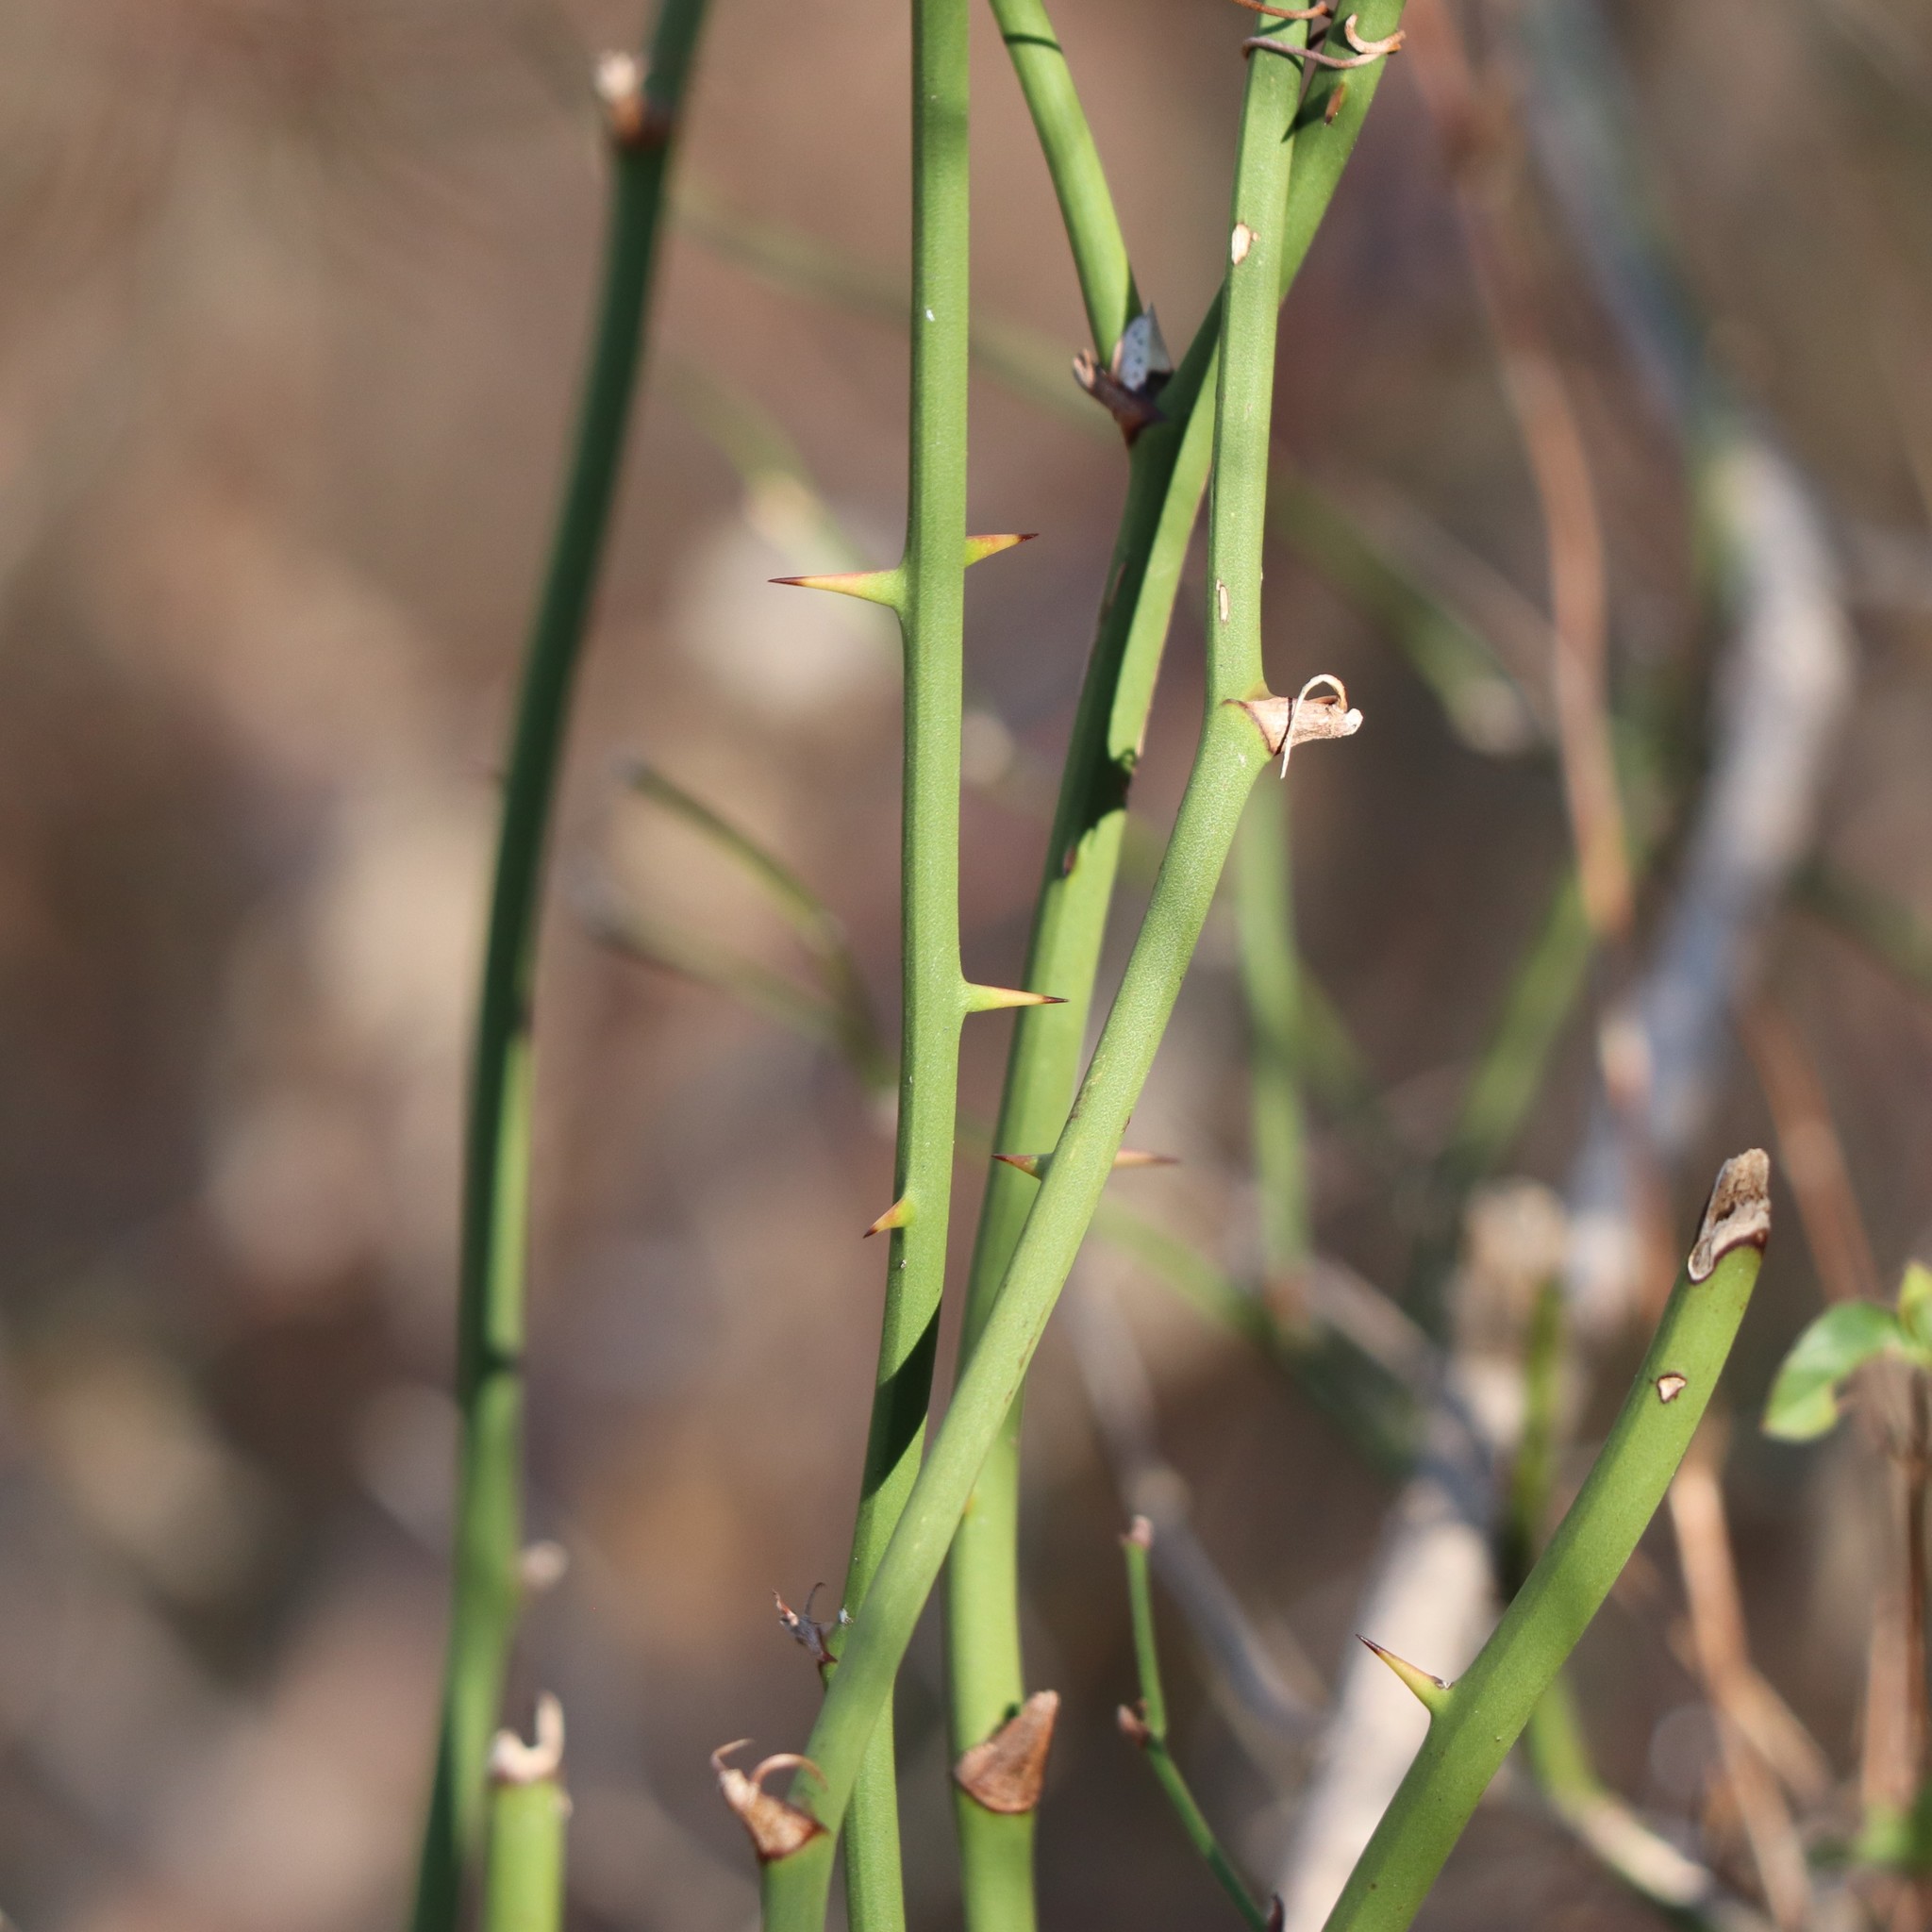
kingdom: Plantae
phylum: Tracheophyta
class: Liliopsida
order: Liliales
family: Smilacaceae
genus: Smilax
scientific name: Smilax rotundifolia
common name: Bullbriar
